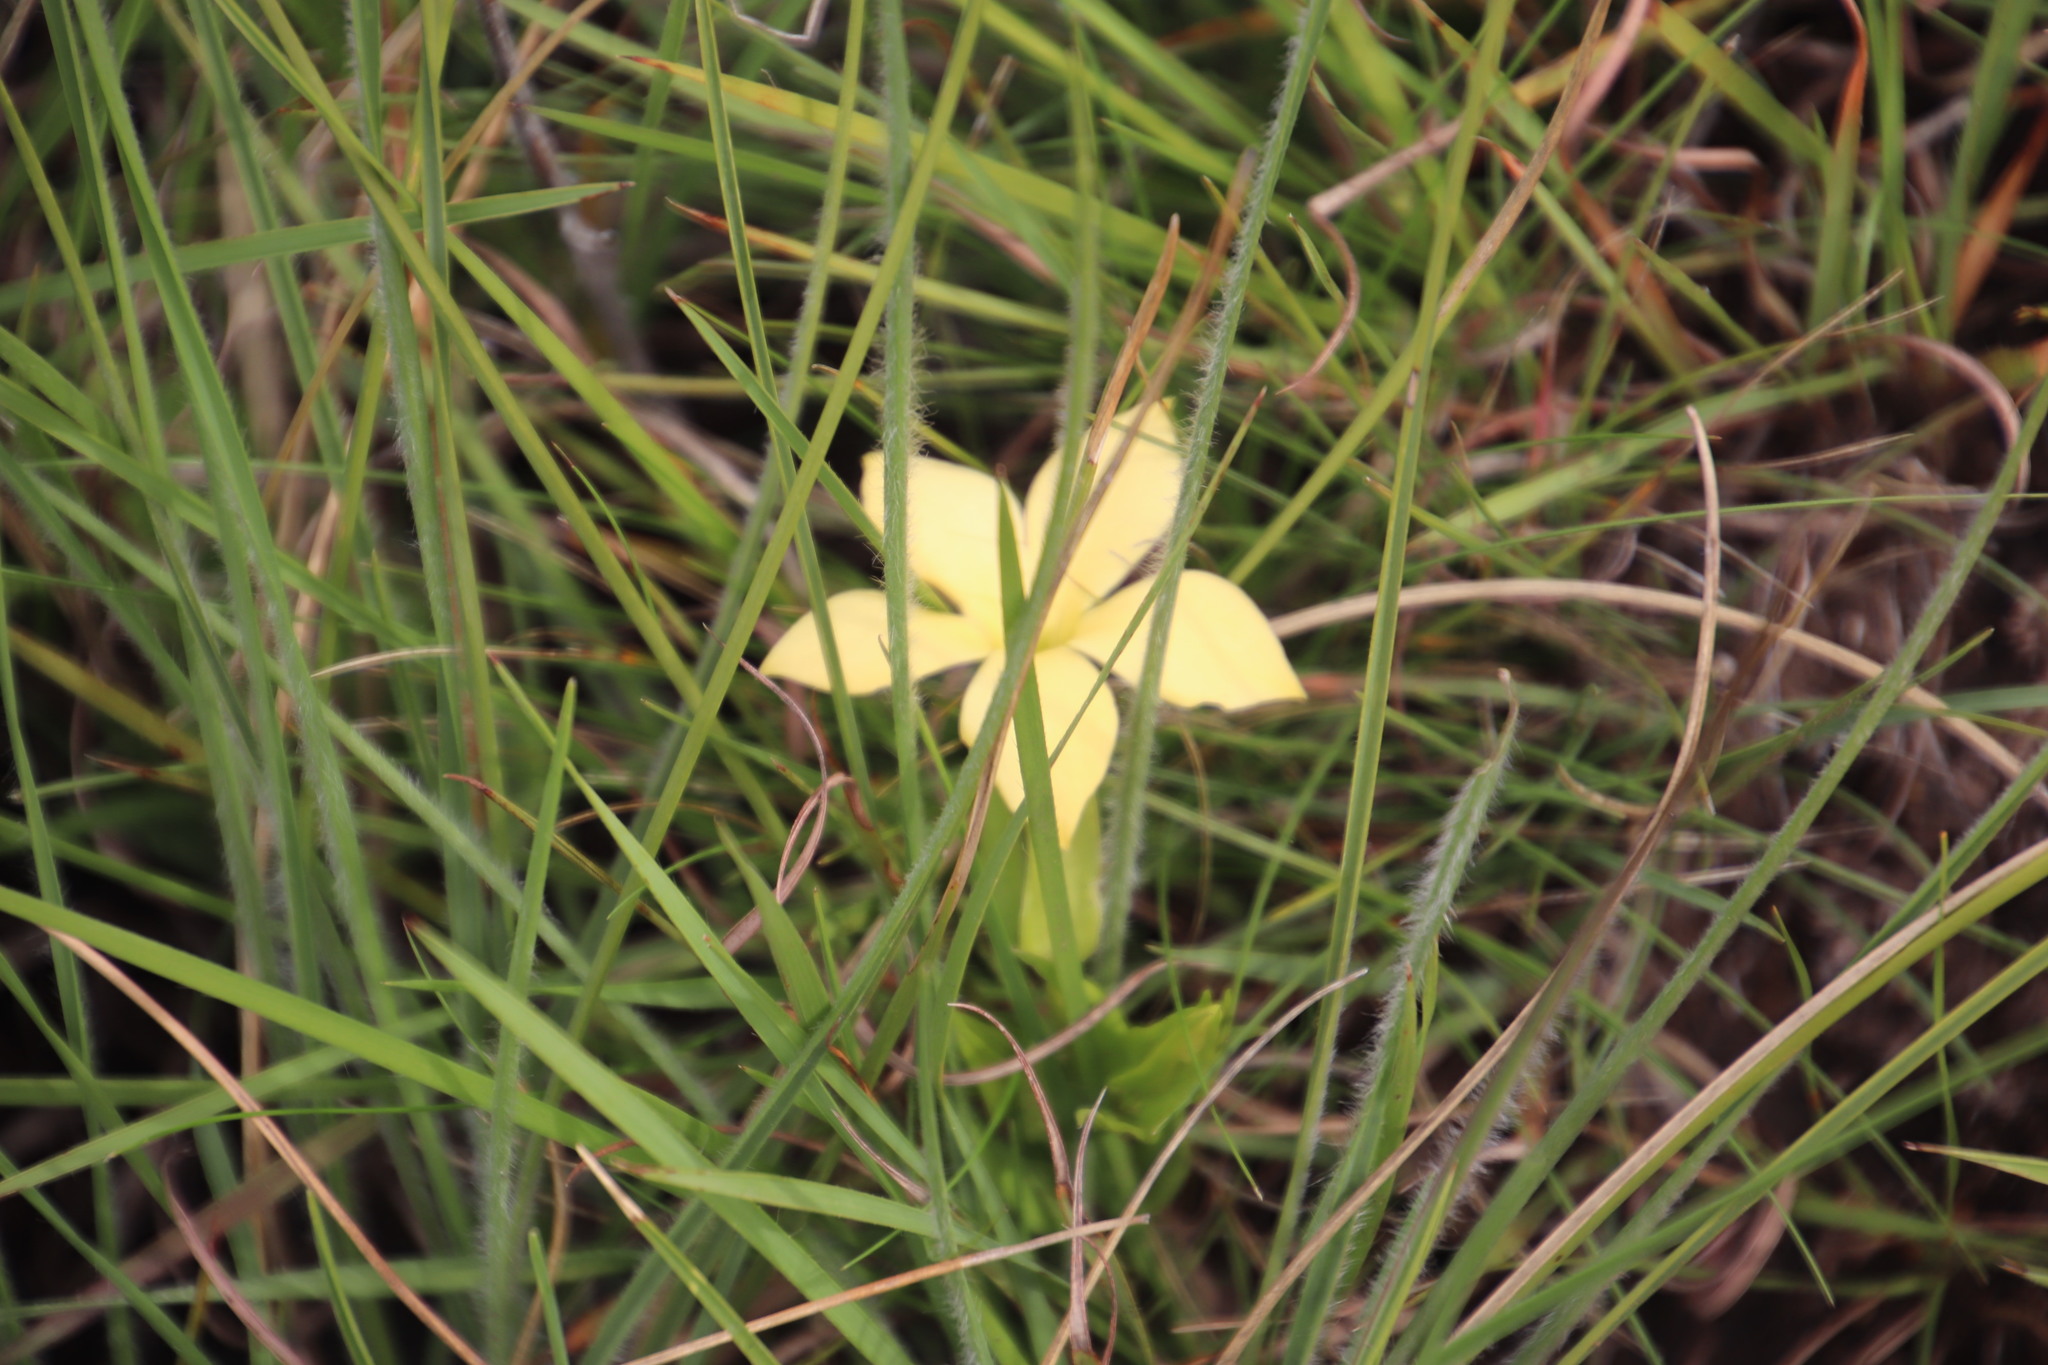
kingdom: Plantae
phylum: Tracheophyta
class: Magnoliopsida
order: Gentianales
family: Gentianaceae
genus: Exochaenium
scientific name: Exochaenium grande
